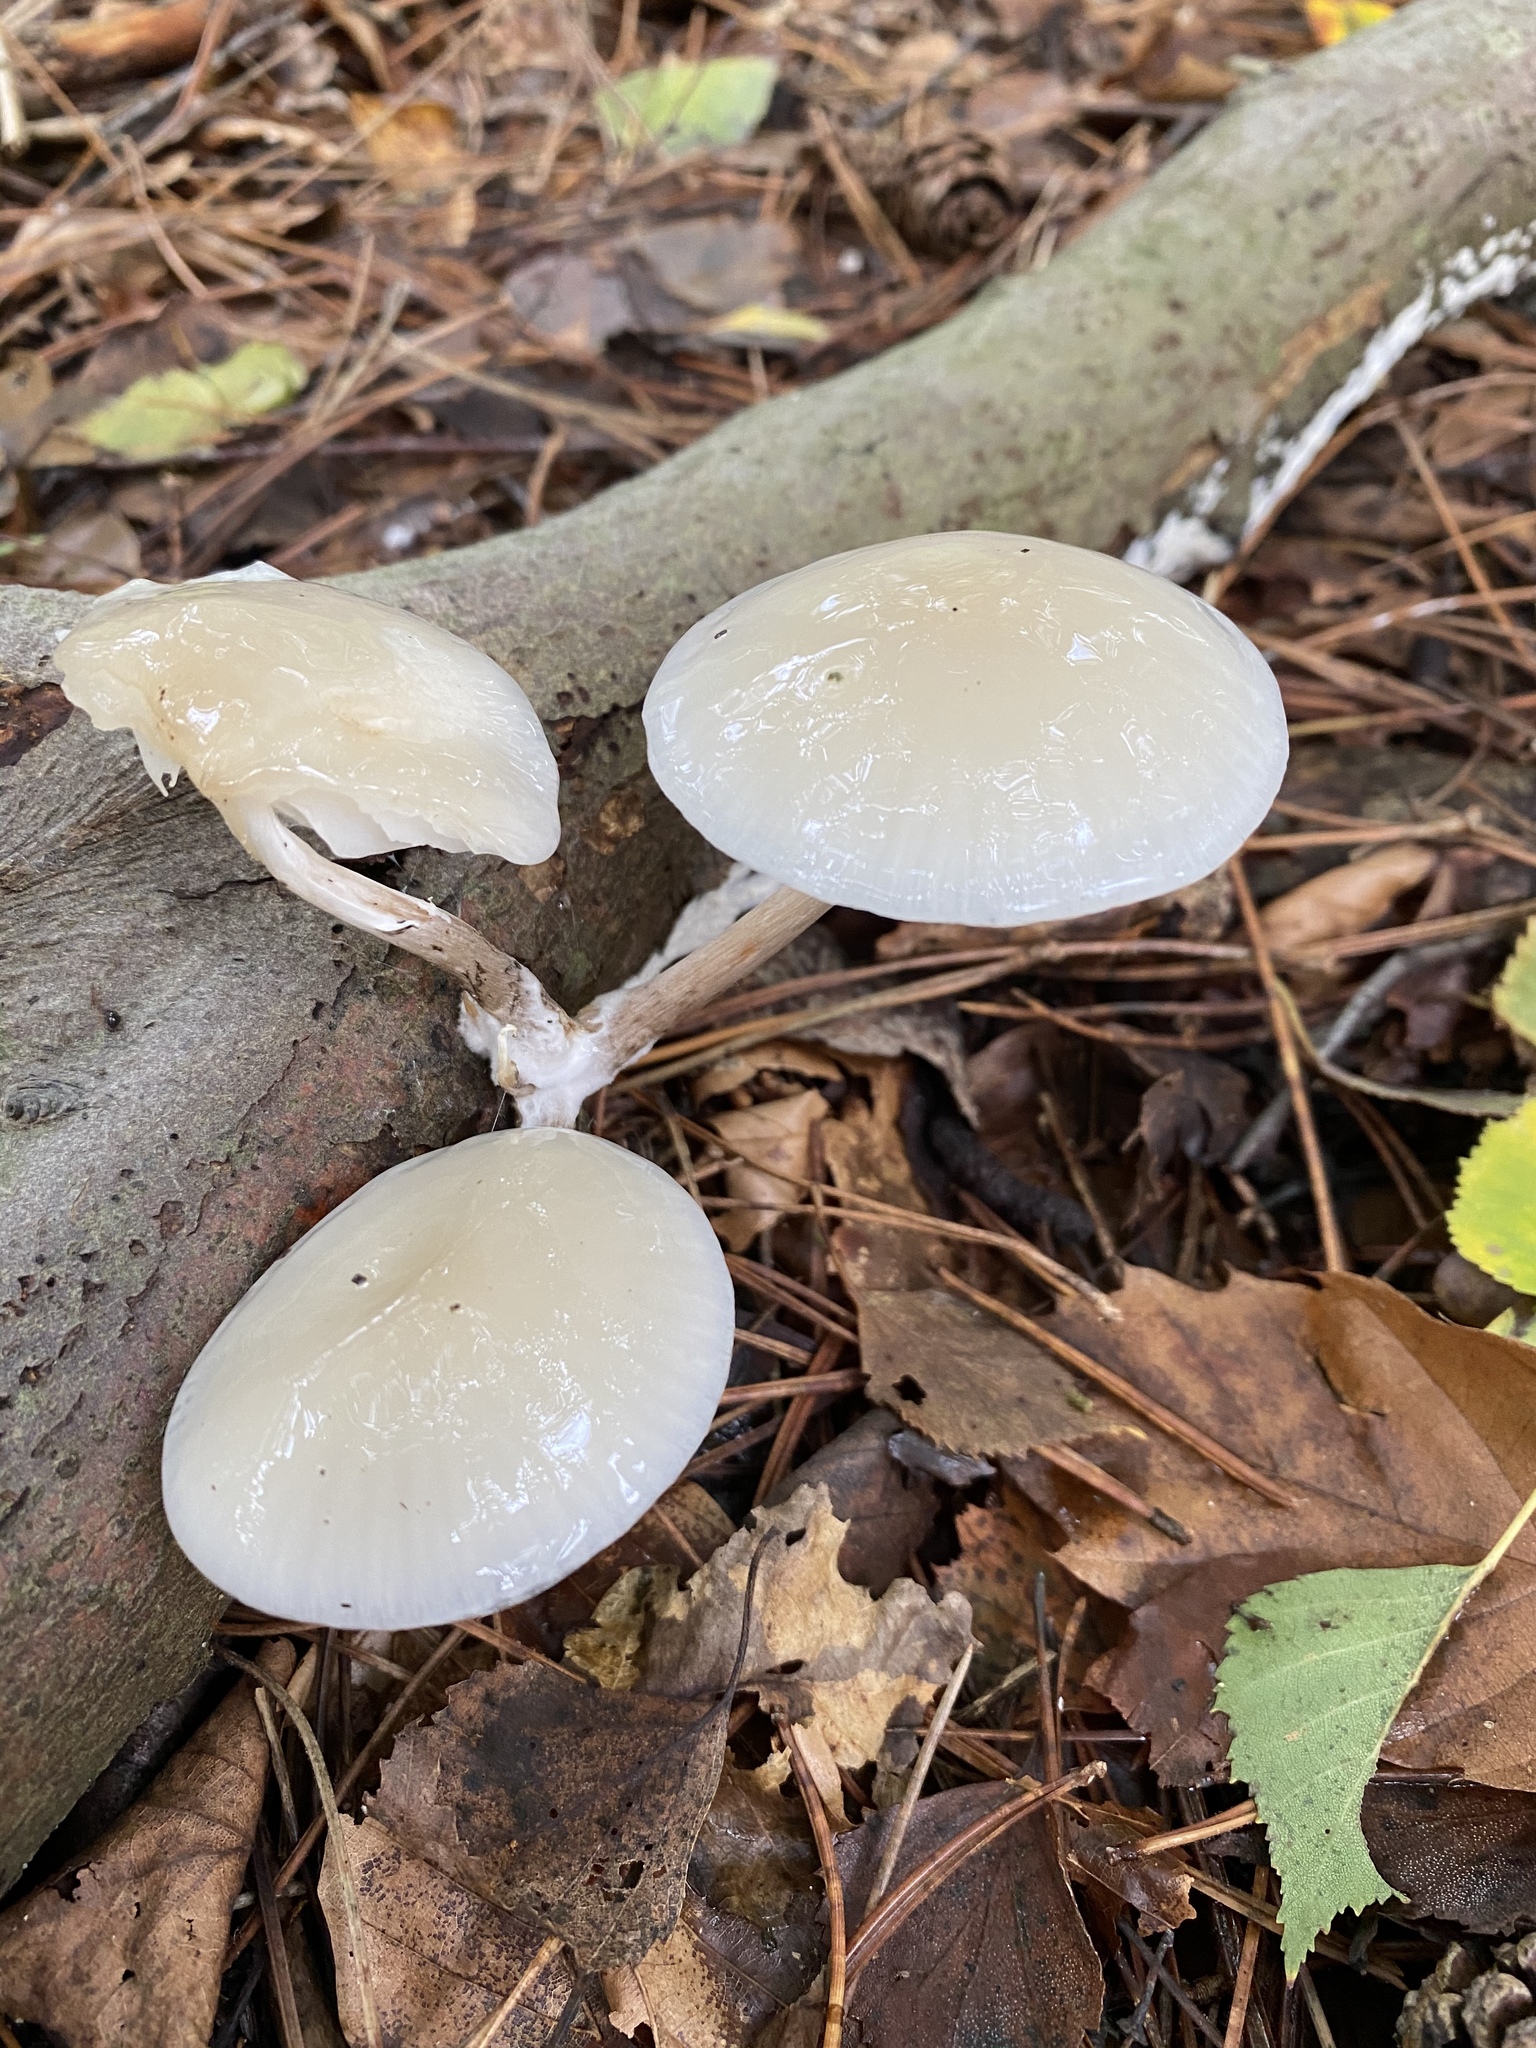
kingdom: Fungi
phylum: Basidiomycota
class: Agaricomycetes
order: Agaricales
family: Physalacriaceae
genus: Mucidula
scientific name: Mucidula mucida
